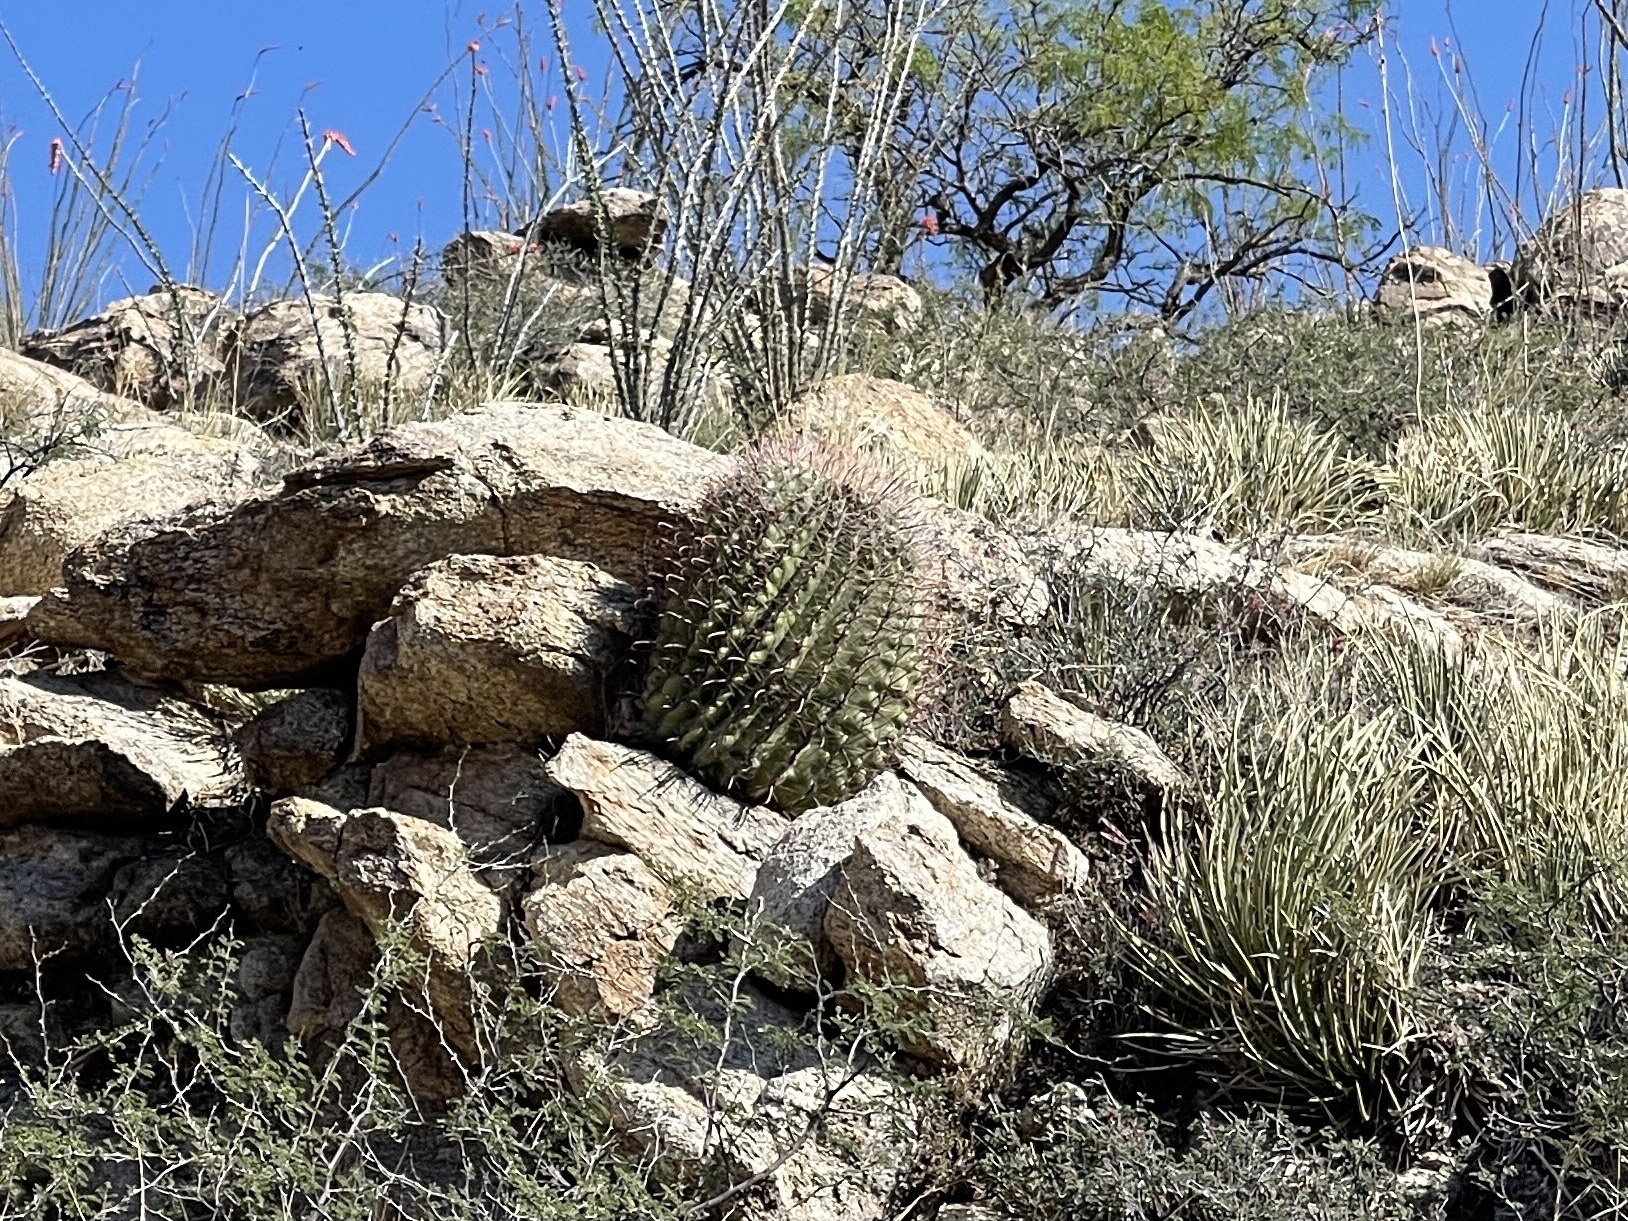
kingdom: Plantae
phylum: Tracheophyta
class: Magnoliopsida
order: Caryophyllales
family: Cactaceae
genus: Ferocactus
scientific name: Ferocactus wislizeni
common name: Candy barrel cactus
